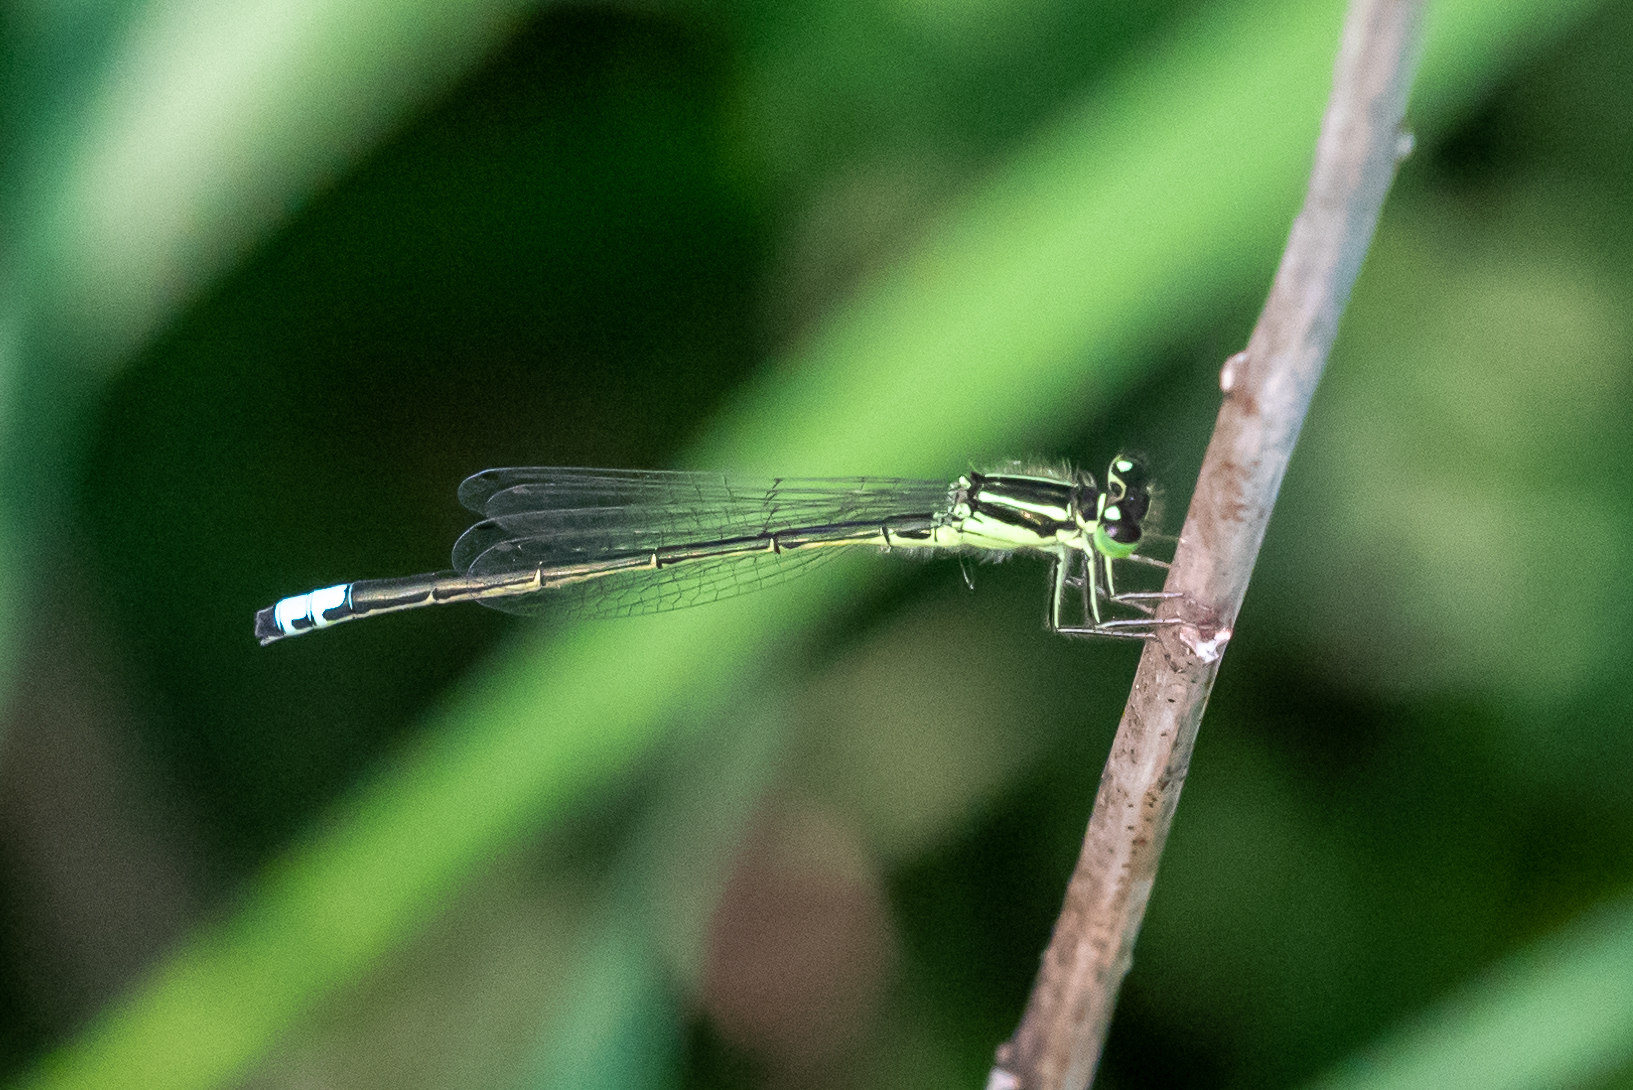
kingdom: Animalia
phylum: Arthropoda
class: Insecta
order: Odonata
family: Coenagrionidae
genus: Ischnura
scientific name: Ischnura verticalis
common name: Eastern forktail
